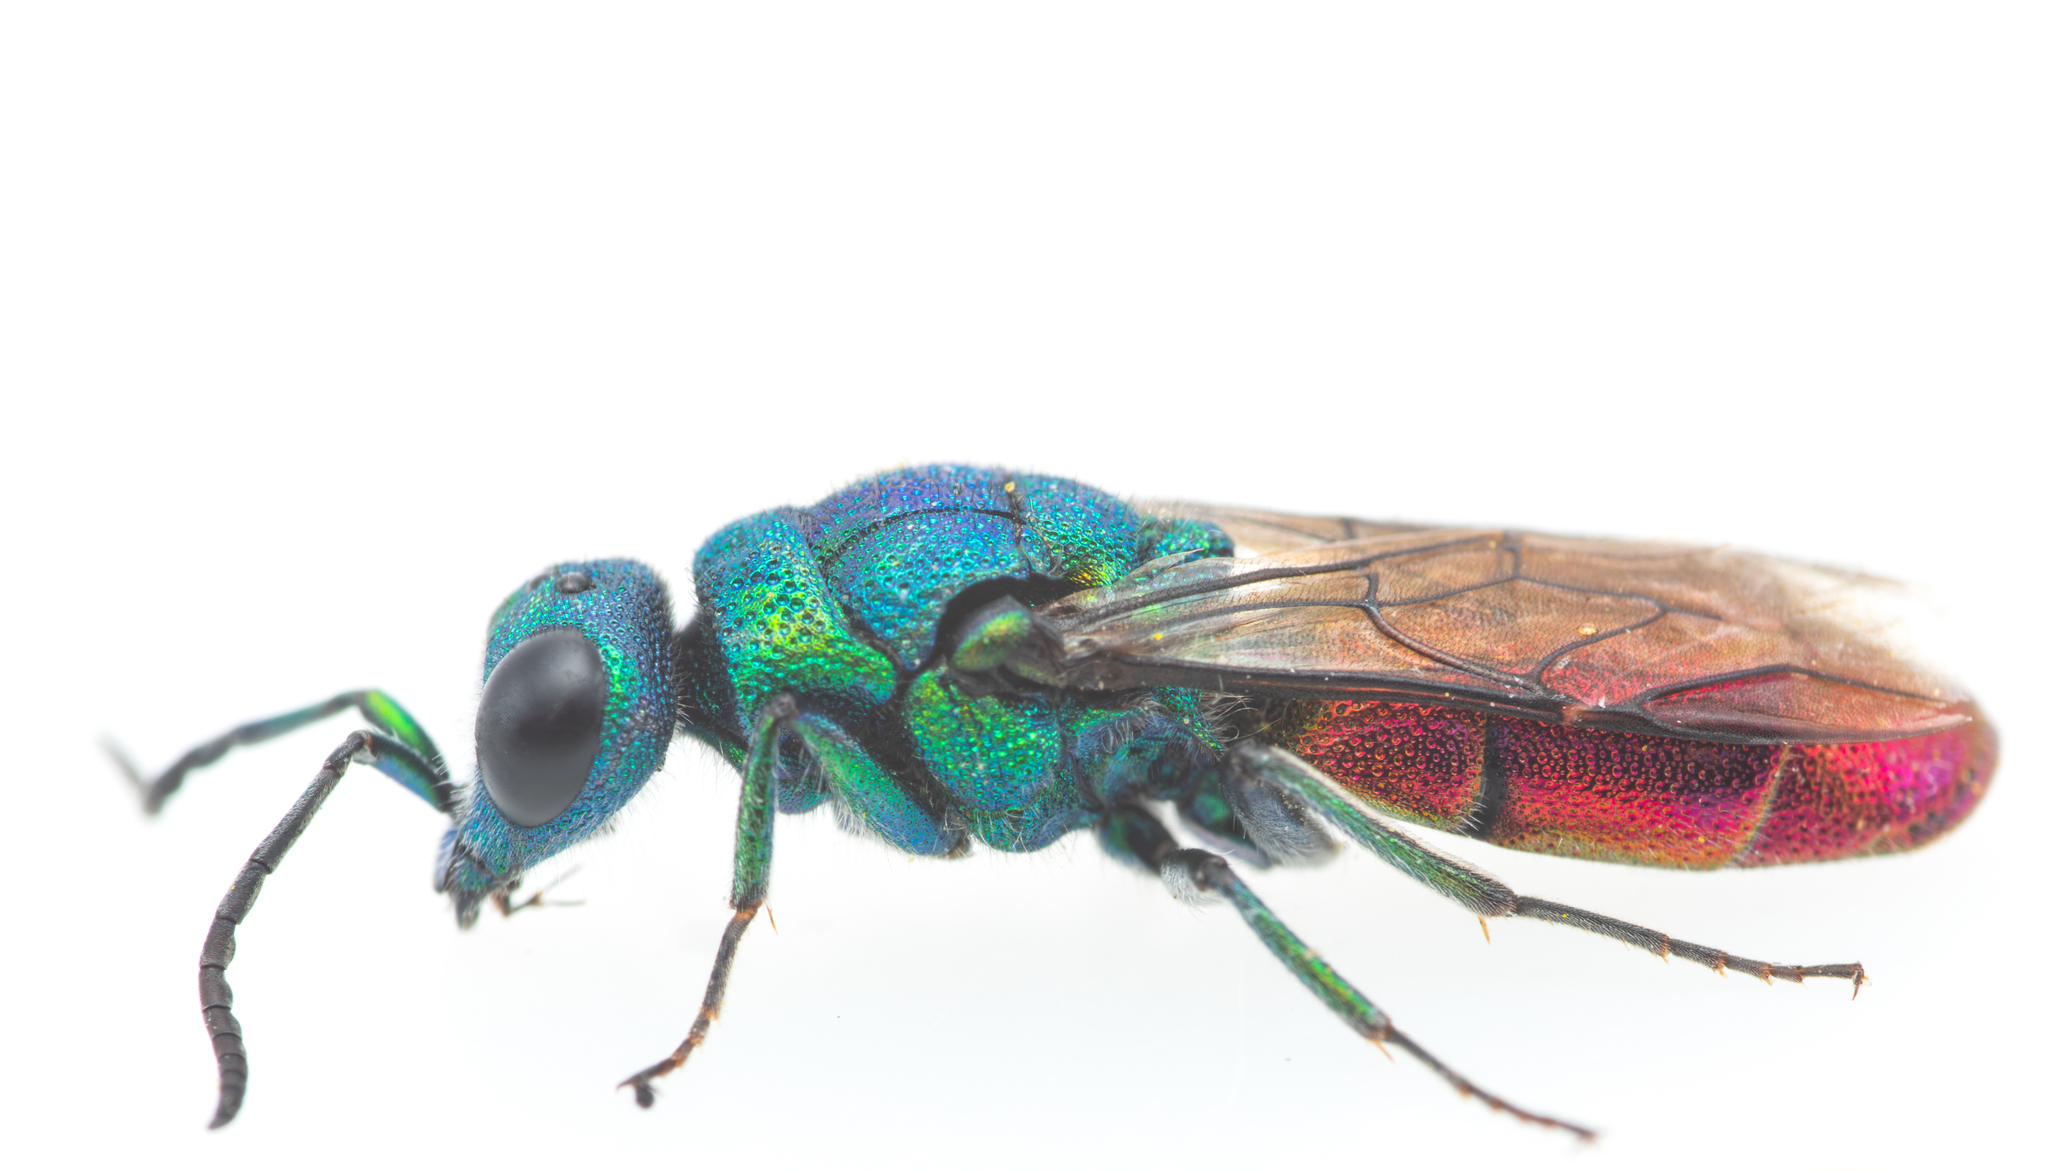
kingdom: Animalia
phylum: Arthropoda
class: Insecta
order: Hymenoptera
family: Chrysididae
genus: Chrysura
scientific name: Chrysura refulgens
